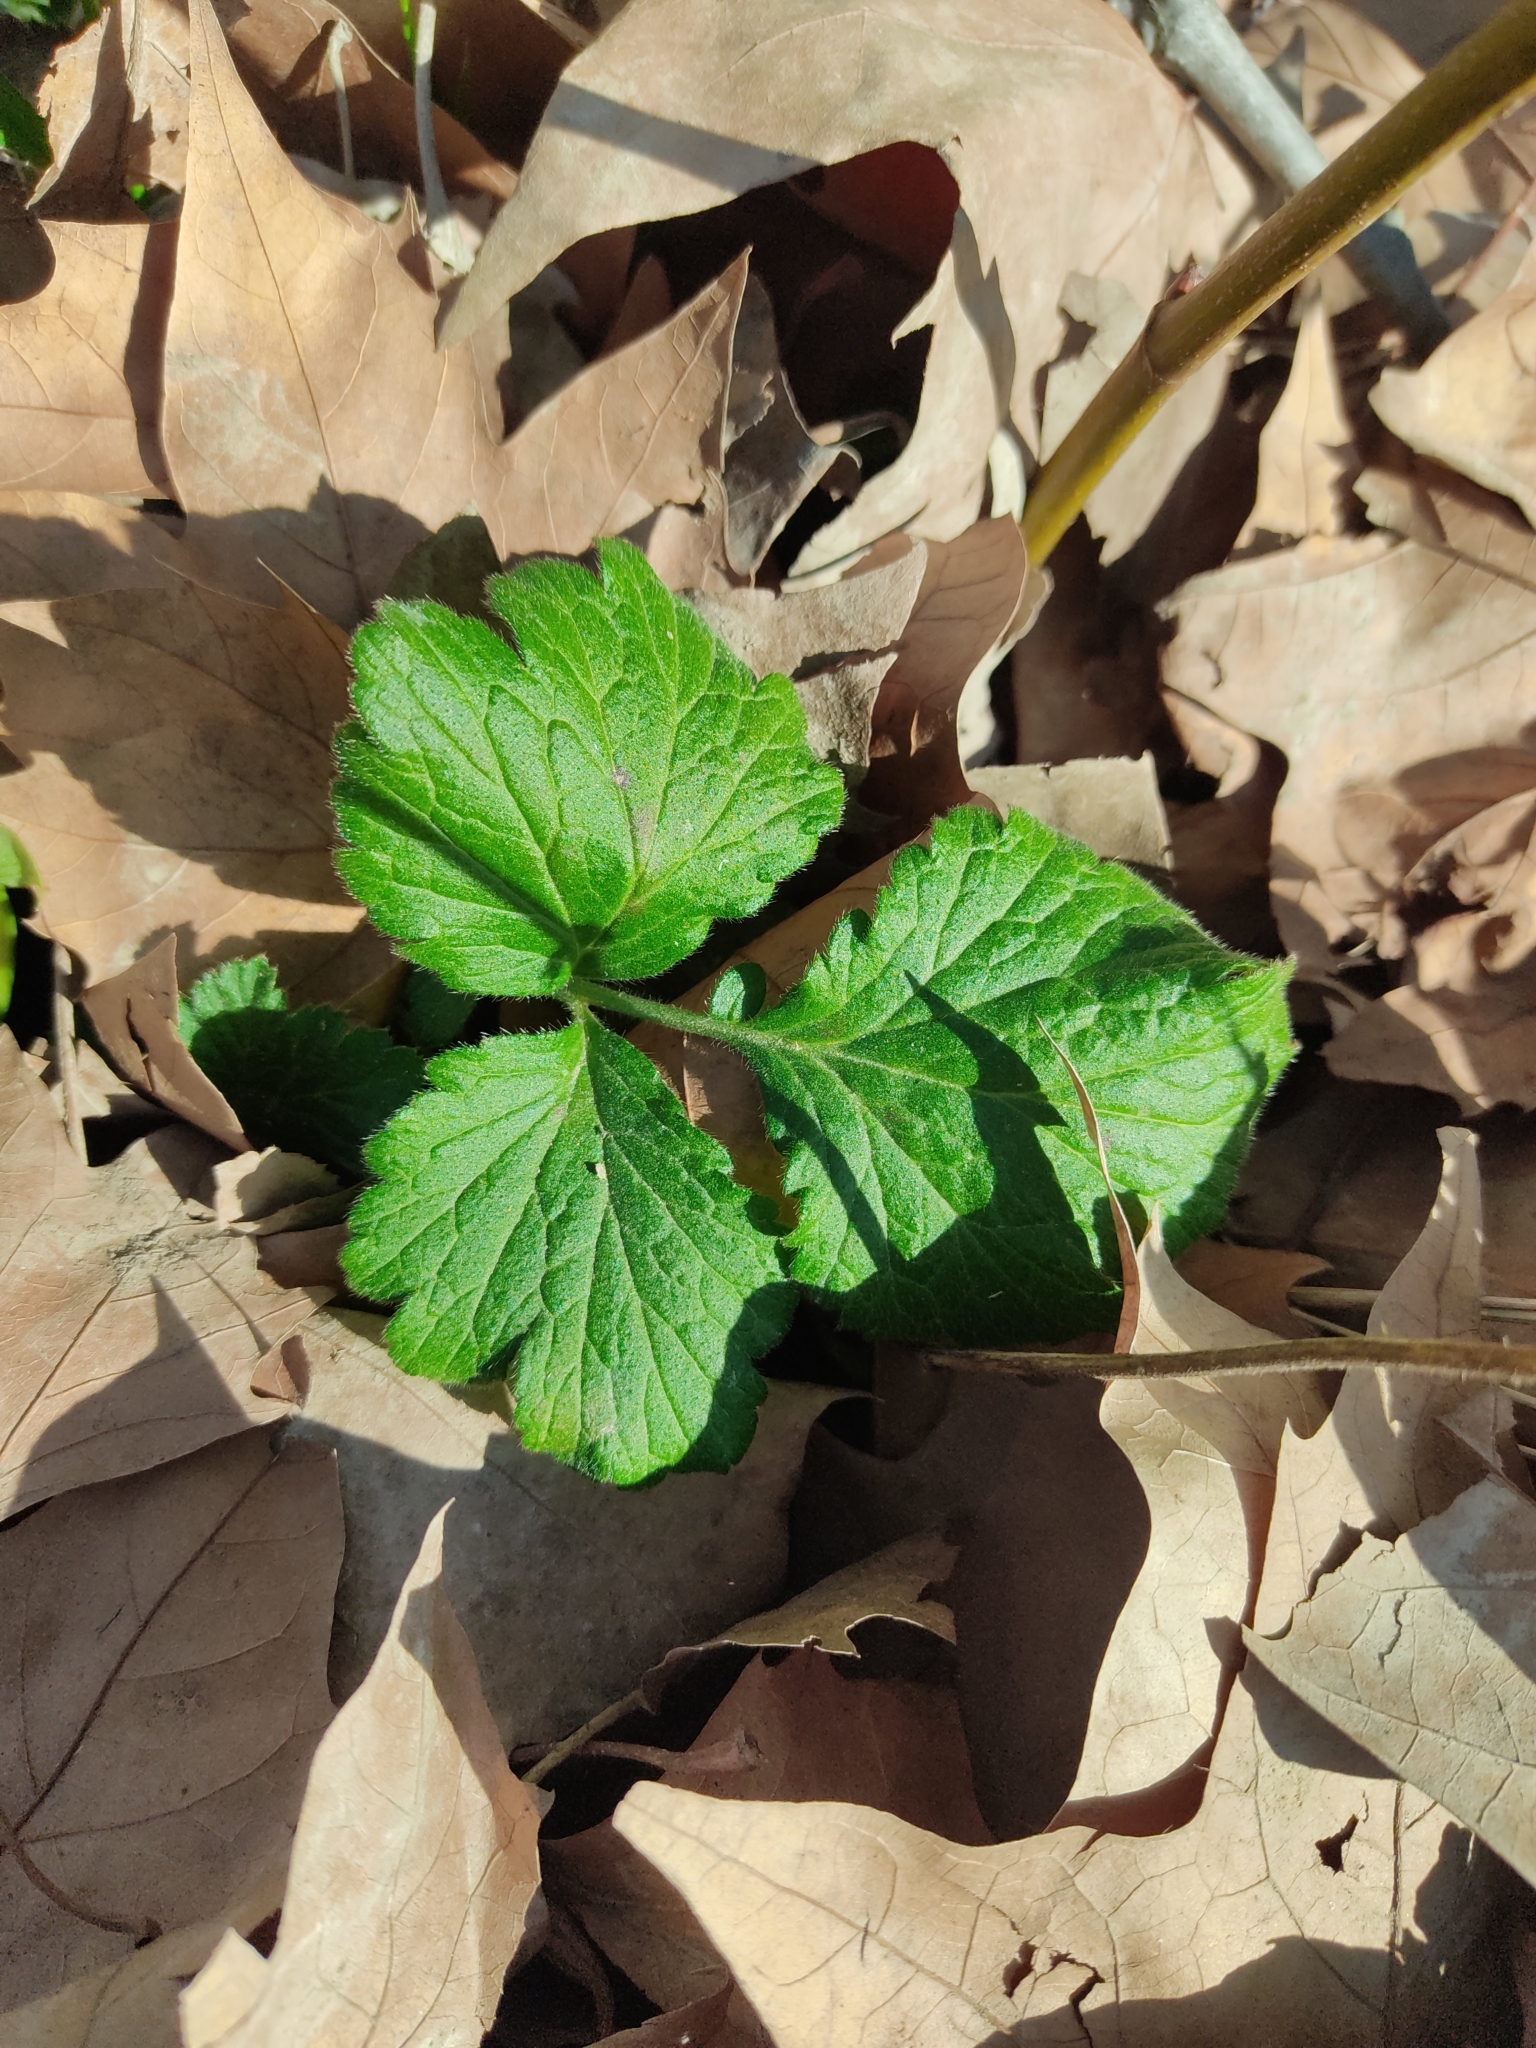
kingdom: Plantae
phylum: Tracheophyta
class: Magnoliopsida
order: Rosales
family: Rosaceae
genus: Geum
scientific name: Geum urbanum
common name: Wood avens
